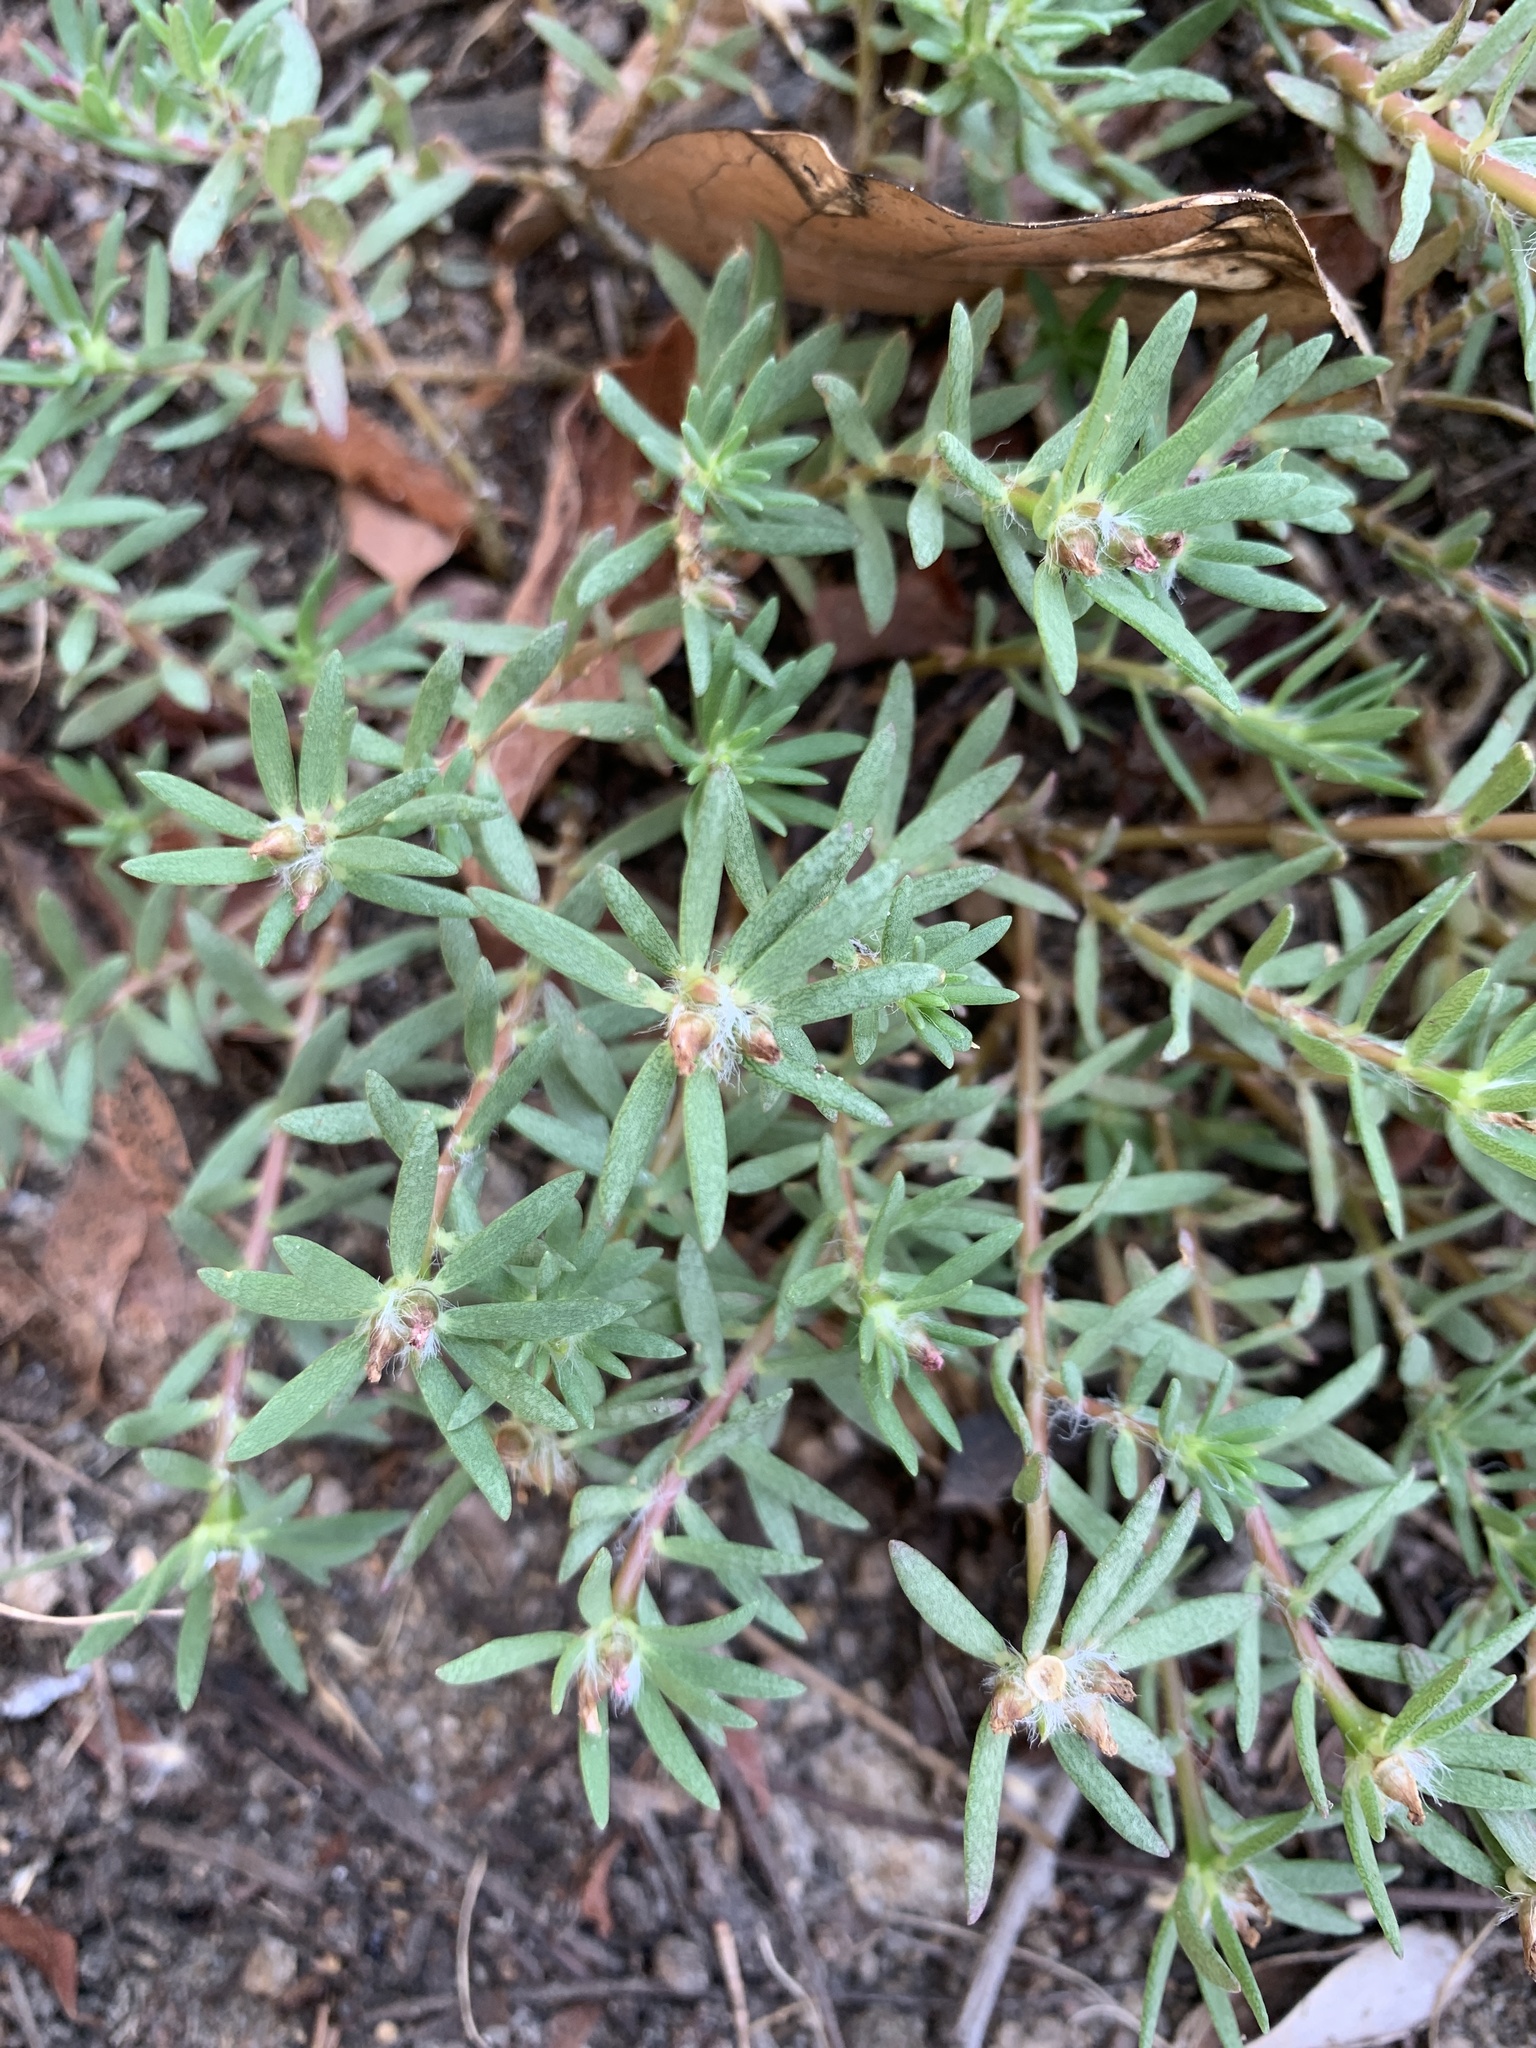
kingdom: Plantae
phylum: Tracheophyta
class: Magnoliopsida
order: Caryophyllales
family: Portulacaceae
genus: Portulaca
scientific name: Portulaca pilosa
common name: Kiss me quick
